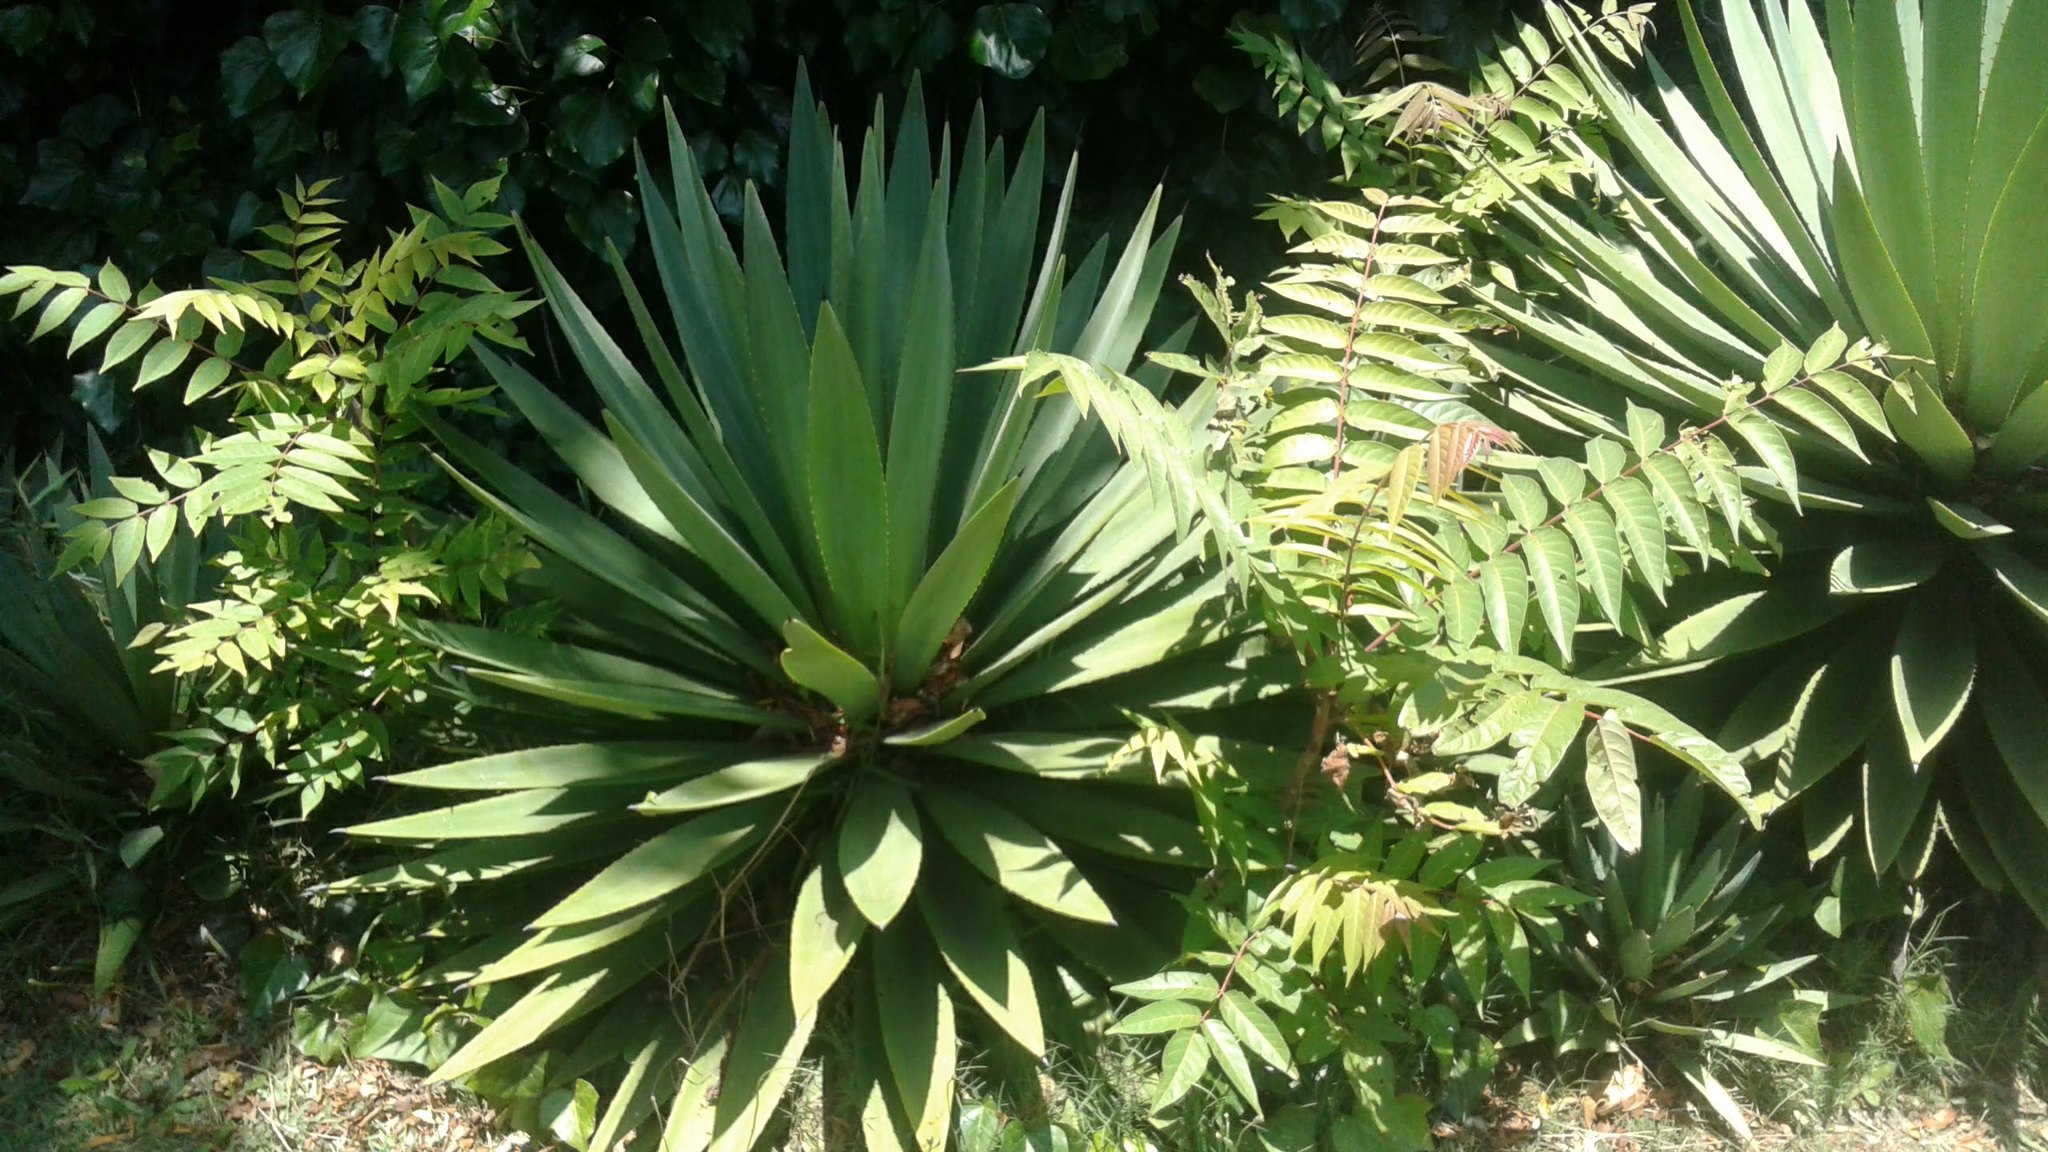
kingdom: Plantae
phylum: Tracheophyta
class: Magnoliopsida
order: Sapindales
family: Simaroubaceae
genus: Ailanthus
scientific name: Ailanthus altissima
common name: Tree-of-heaven
